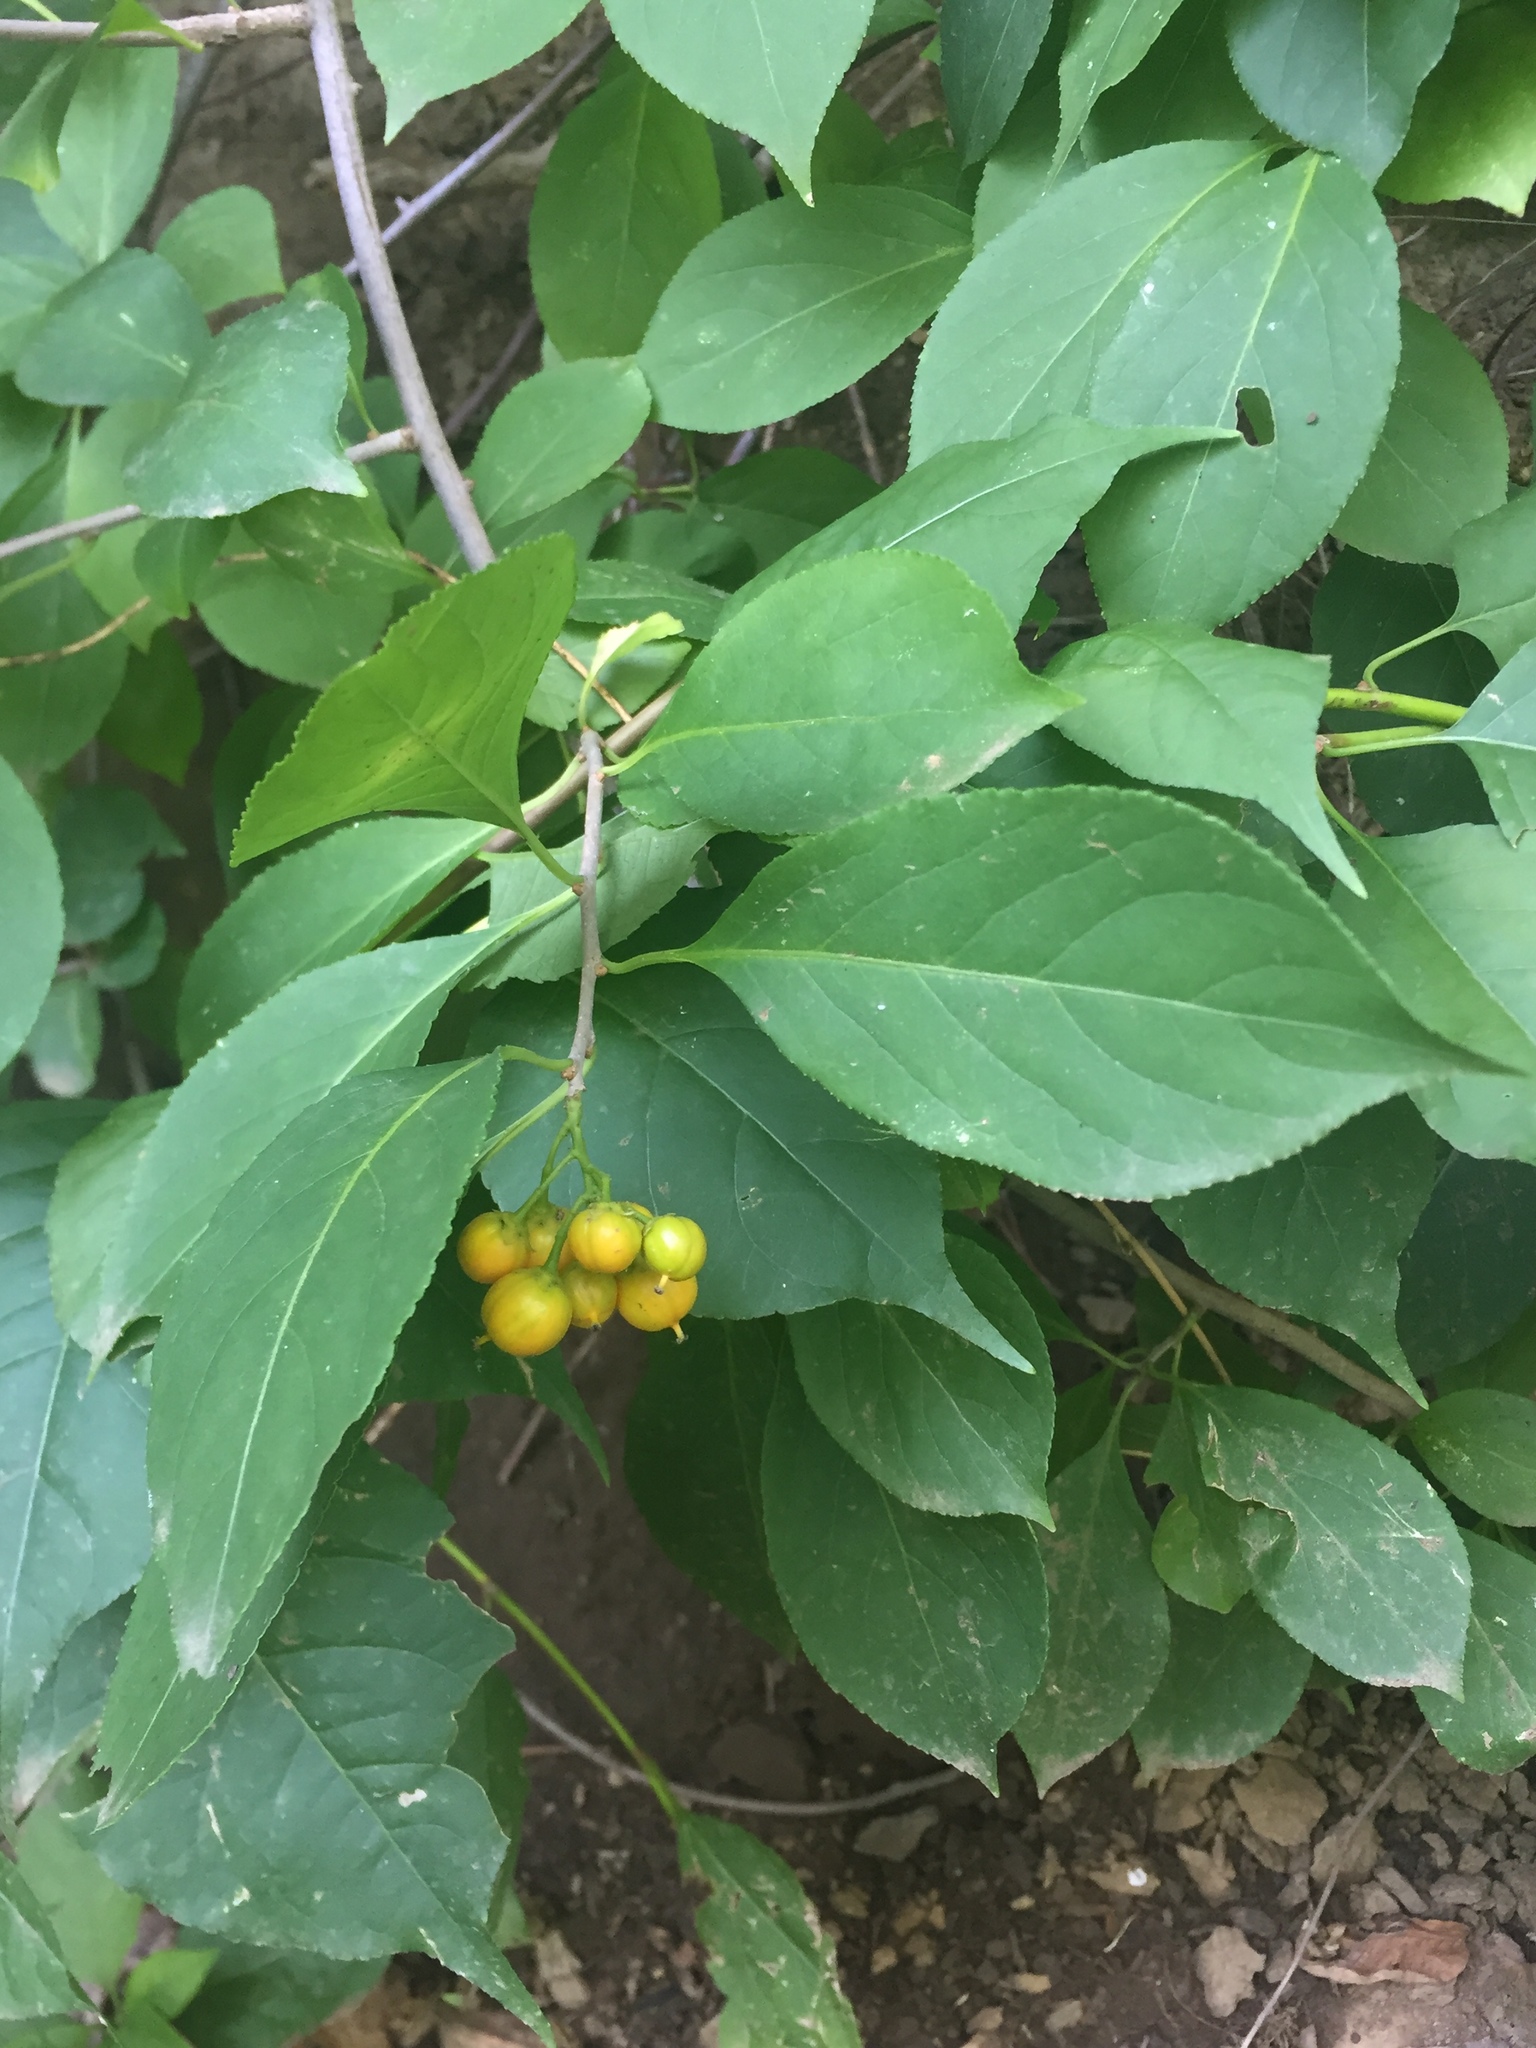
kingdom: Plantae
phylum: Tracheophyta
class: Magnoliopsida
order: Celastrales
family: Celastraceae
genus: Celastrus
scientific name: Celastrus scandens
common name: American bittersweet
